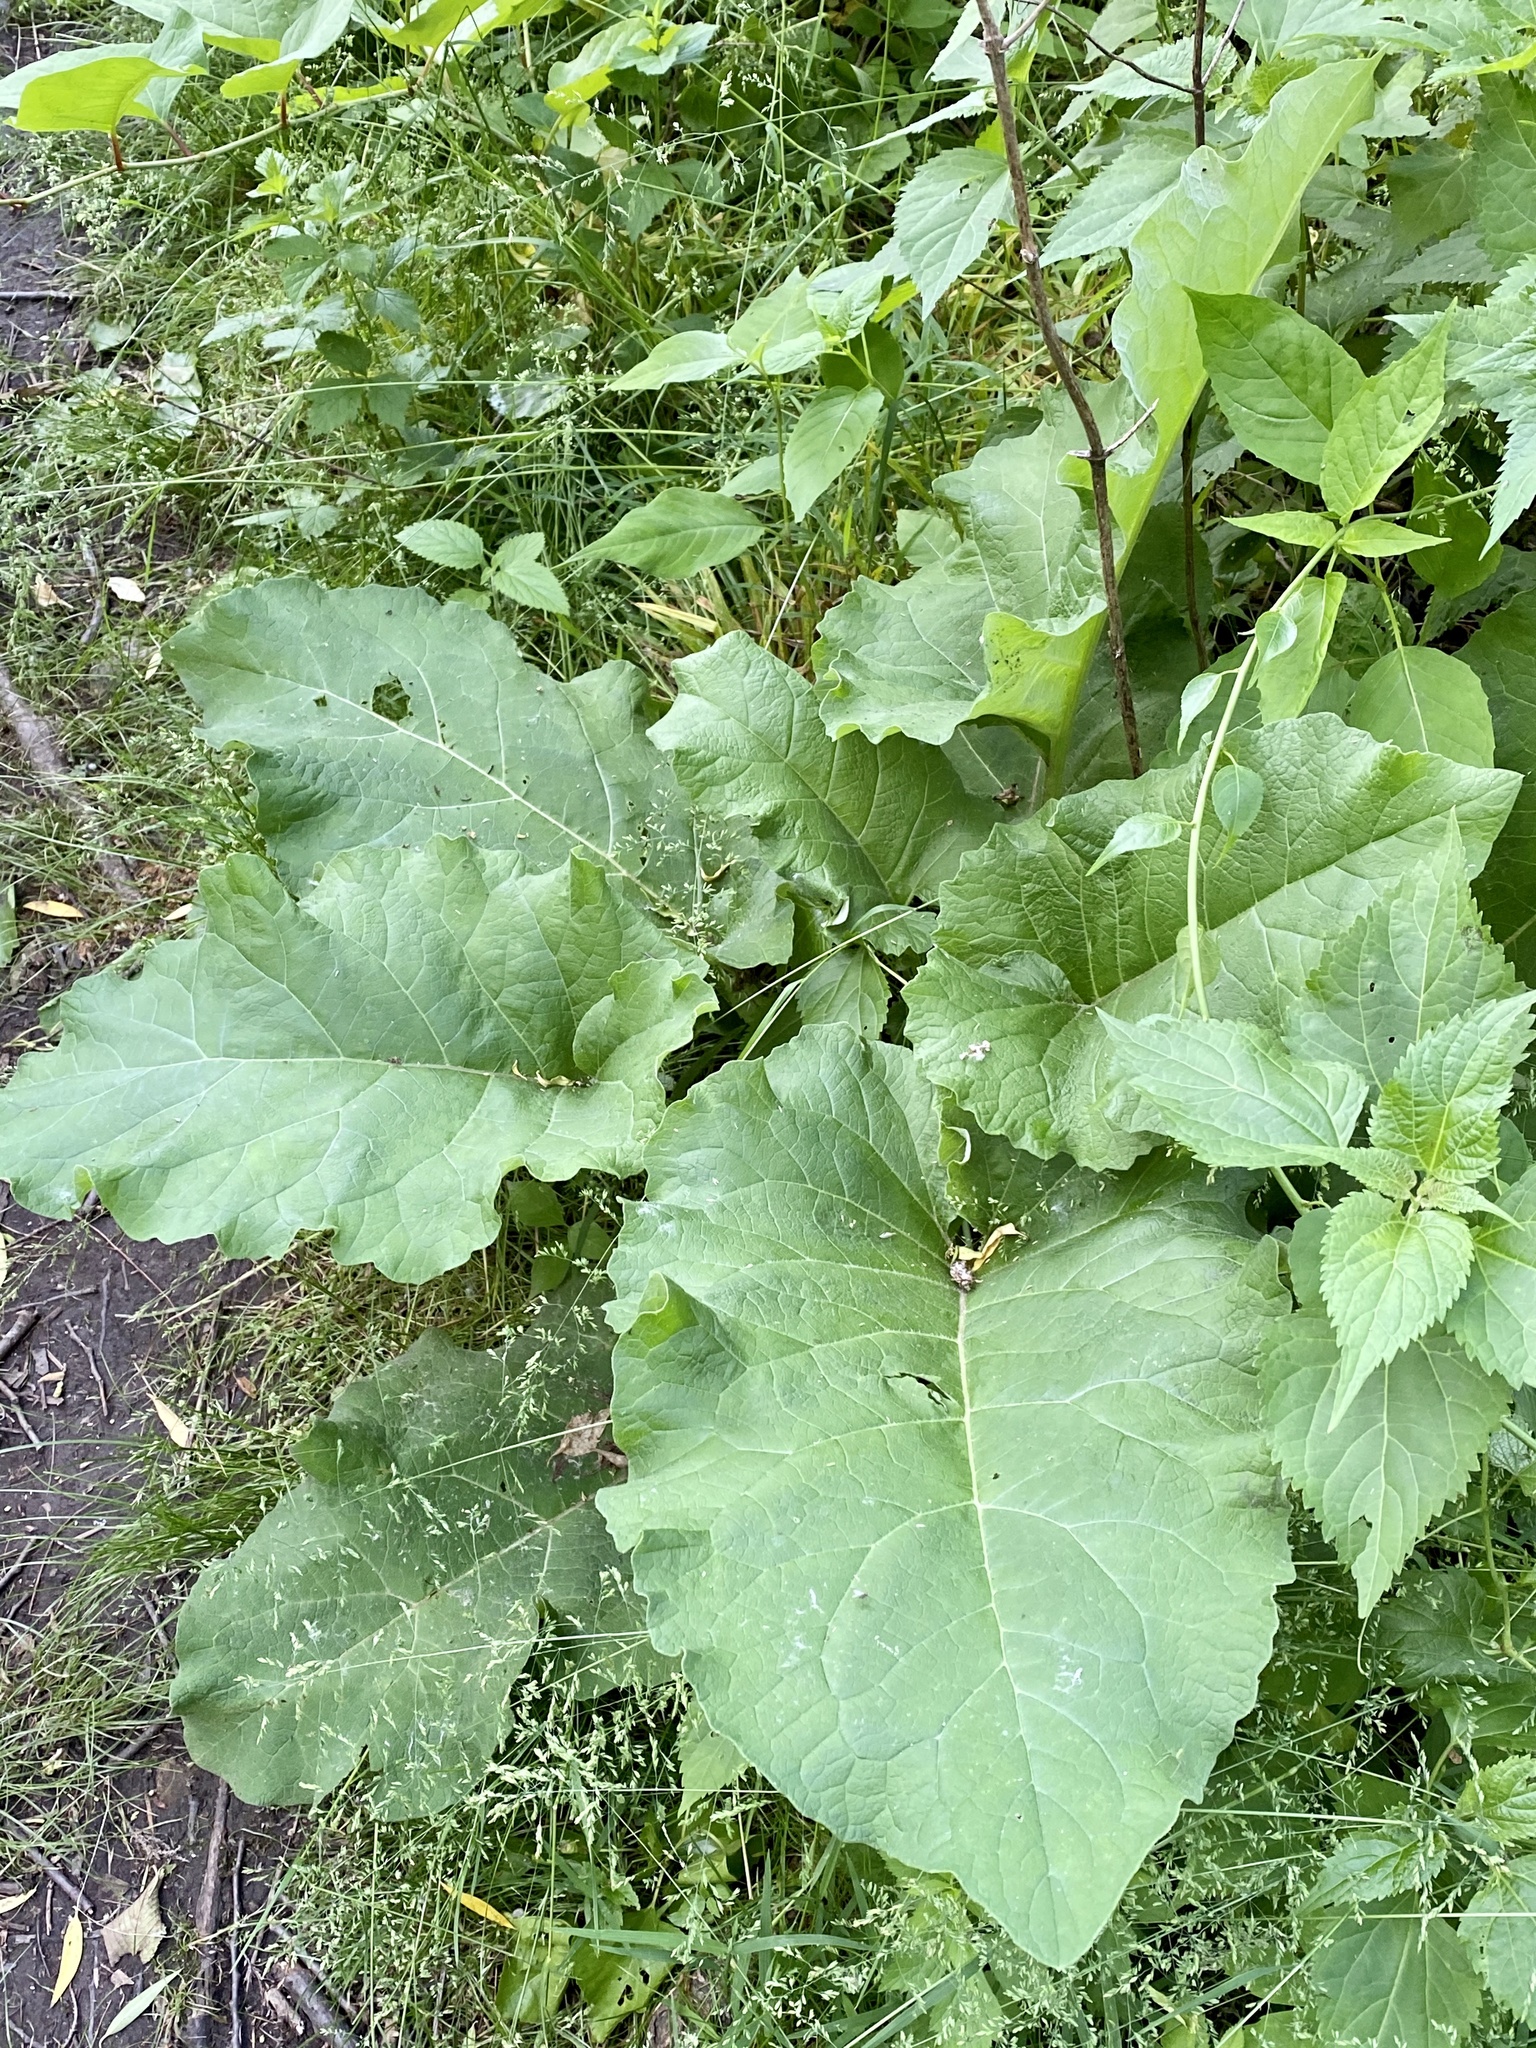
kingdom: Plantae
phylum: Tracheophyta
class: Magnoliopsida
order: Asterales
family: Asteraceae
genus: Arctium
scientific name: Arctium
